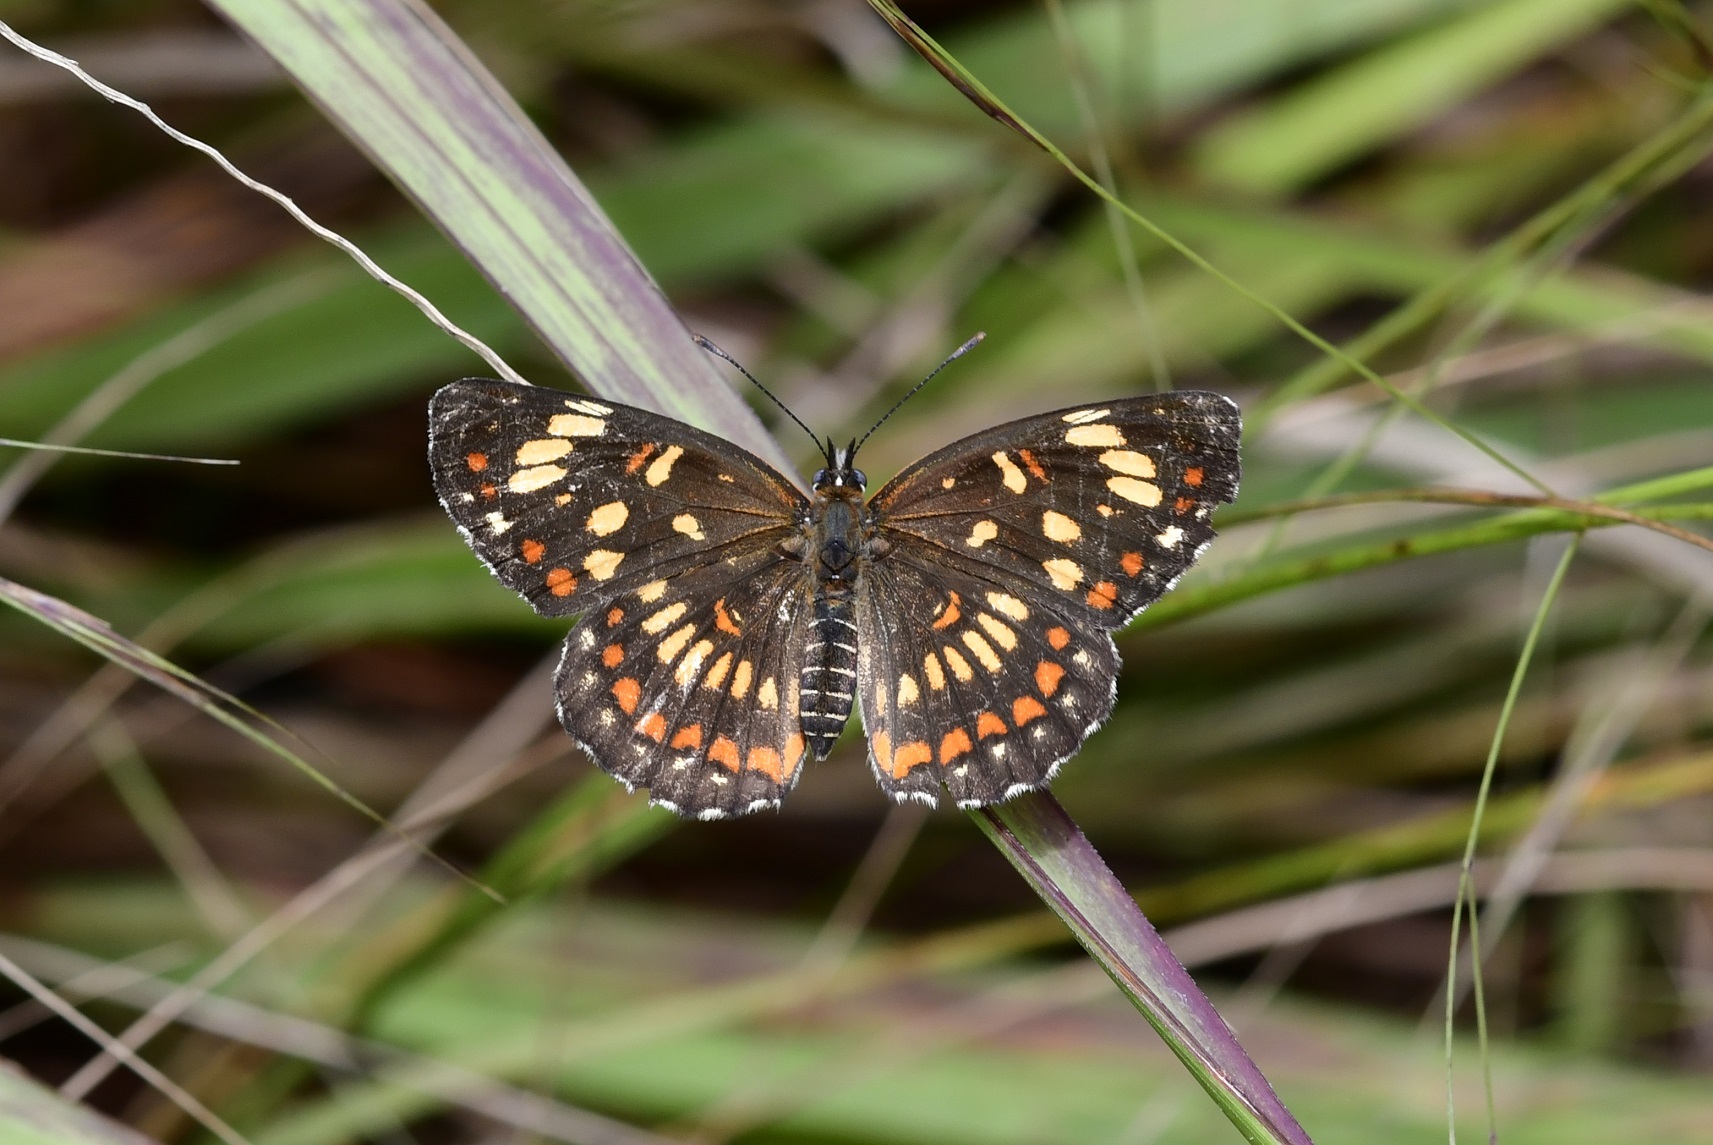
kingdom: Animalia
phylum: Arthropoda
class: Insecta
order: Lepidoptera
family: Nymphalidae
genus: Thessalia
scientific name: Thessalia theona
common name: Nymphalid moth
